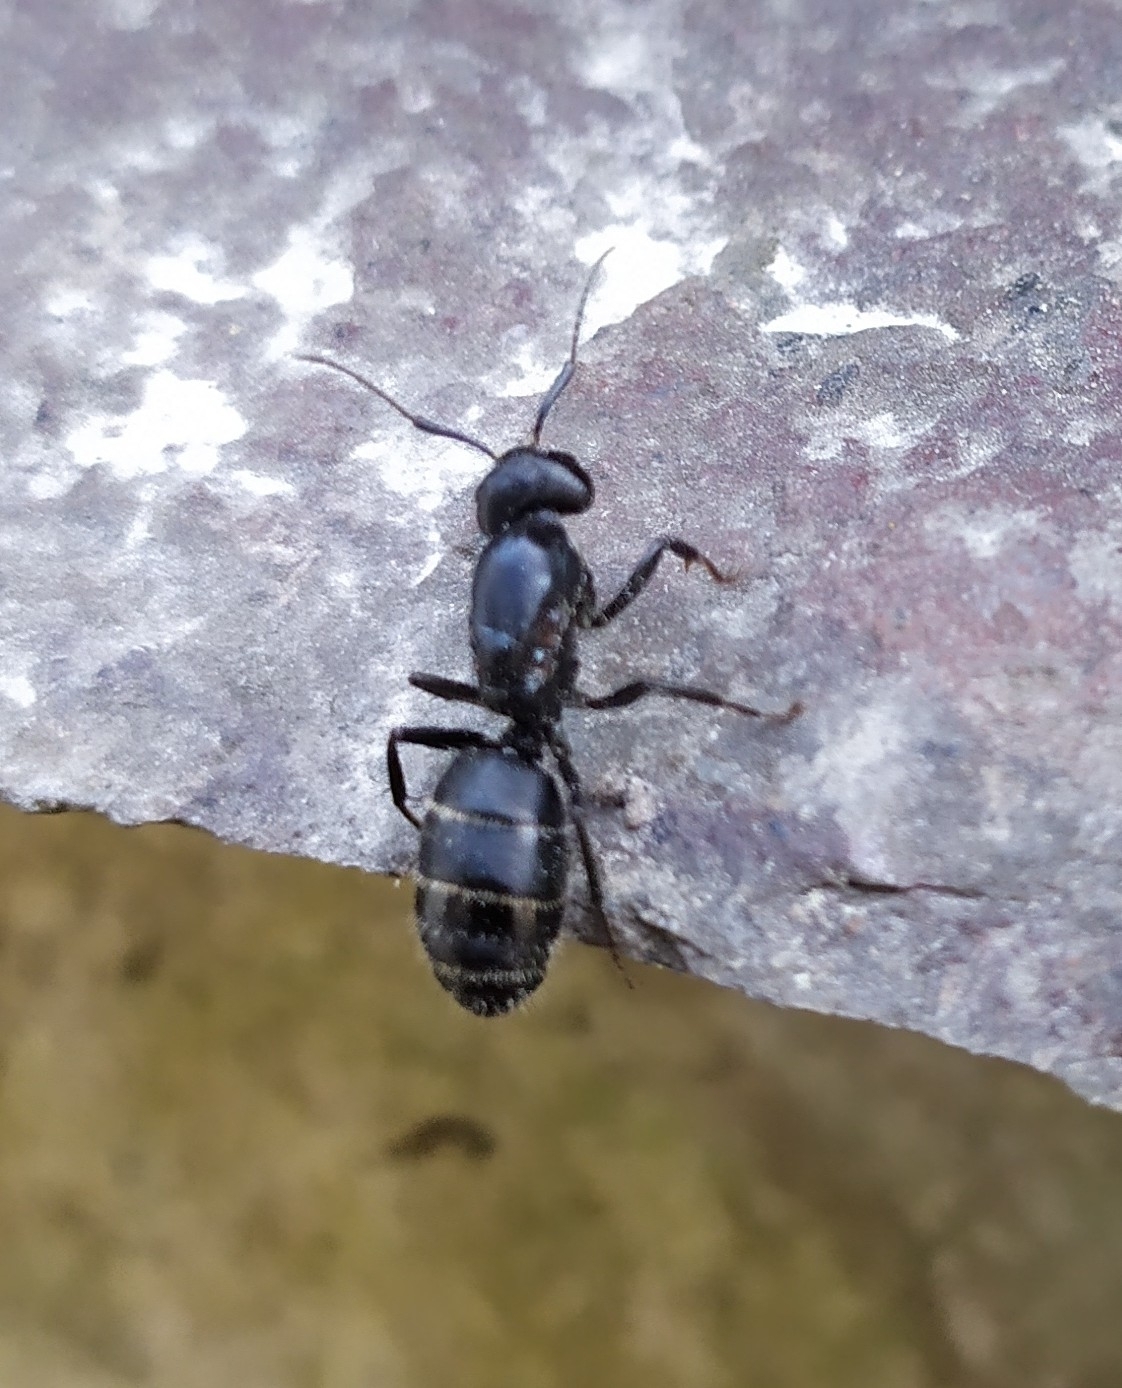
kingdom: Animalia
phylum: Arthropoda
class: Insecta
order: Hymenoptera
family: Formicidae
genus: Camponotus
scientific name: Camponotus vagus
